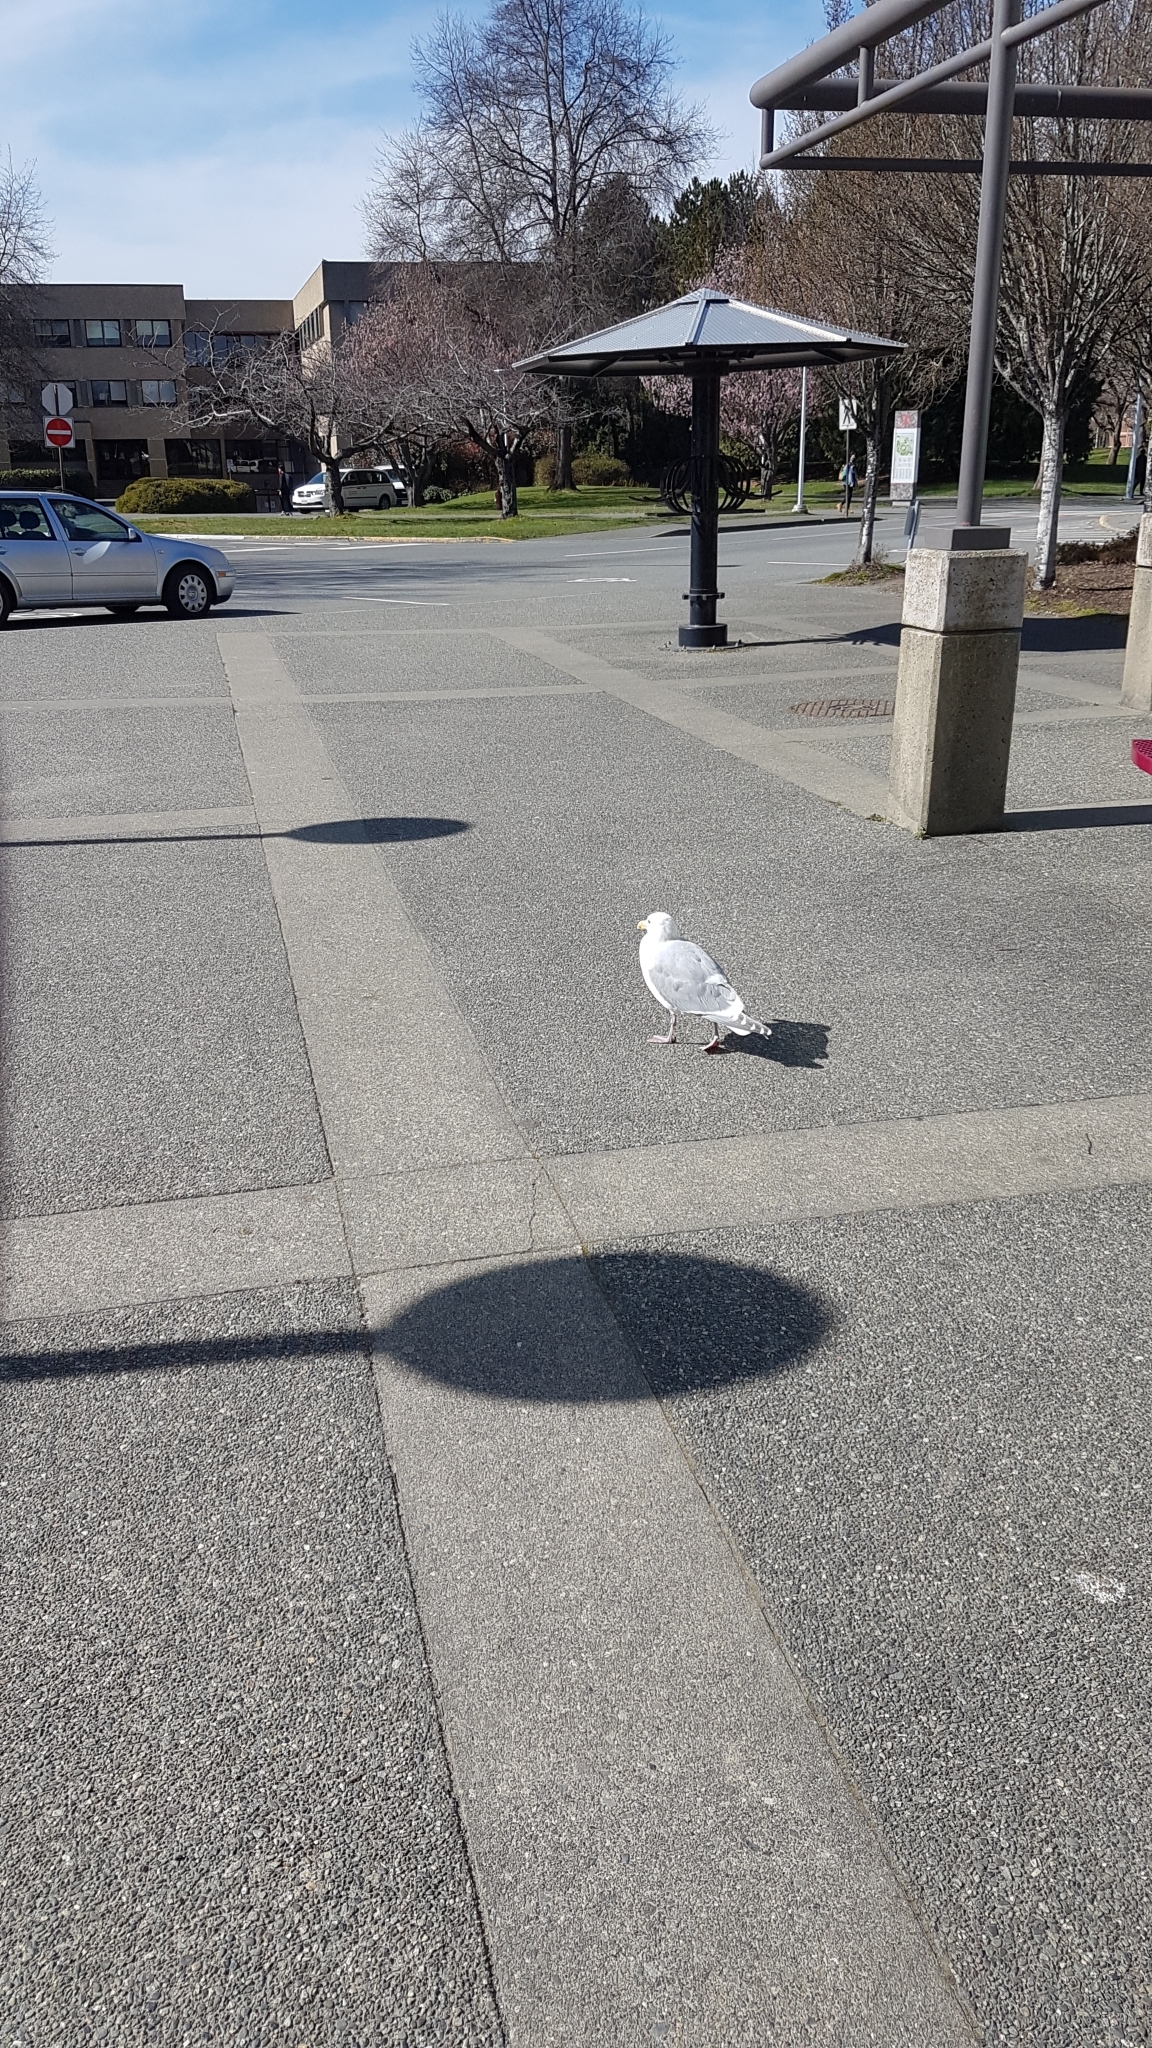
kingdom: Animalia
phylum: Chordata
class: Aves
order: Charadriiformes
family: Laridae
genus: Larus
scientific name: Larus
